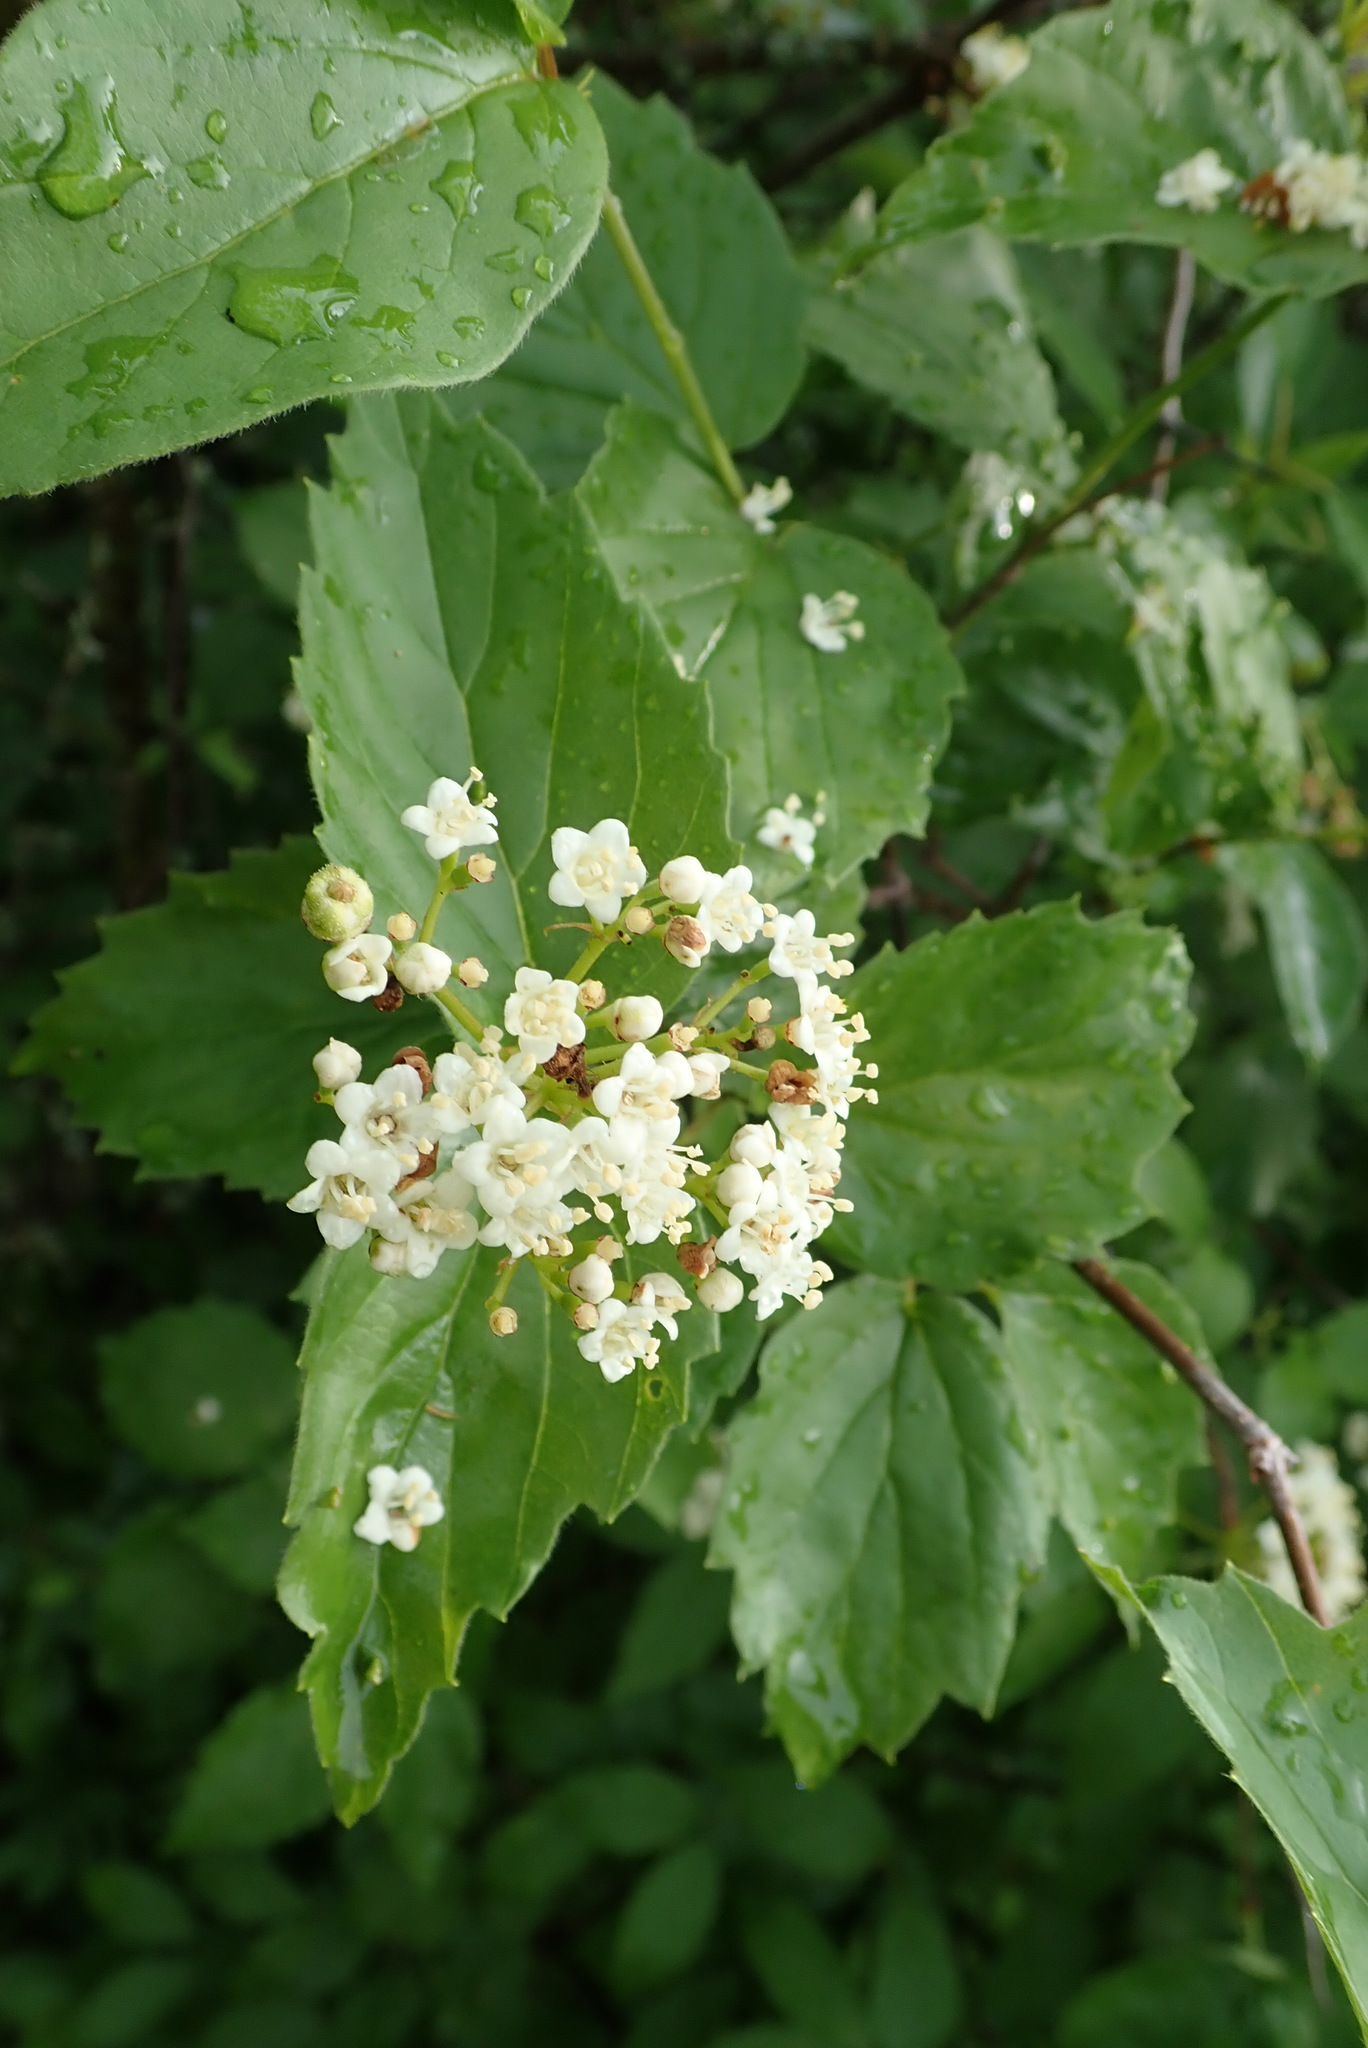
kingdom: Plantae
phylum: Tracheophyta
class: Magnoliopsida
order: Dipsacales
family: Viburnaceae
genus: Viburnum
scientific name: Viburnum rafinesqueanum
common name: Downy arrow-wood
